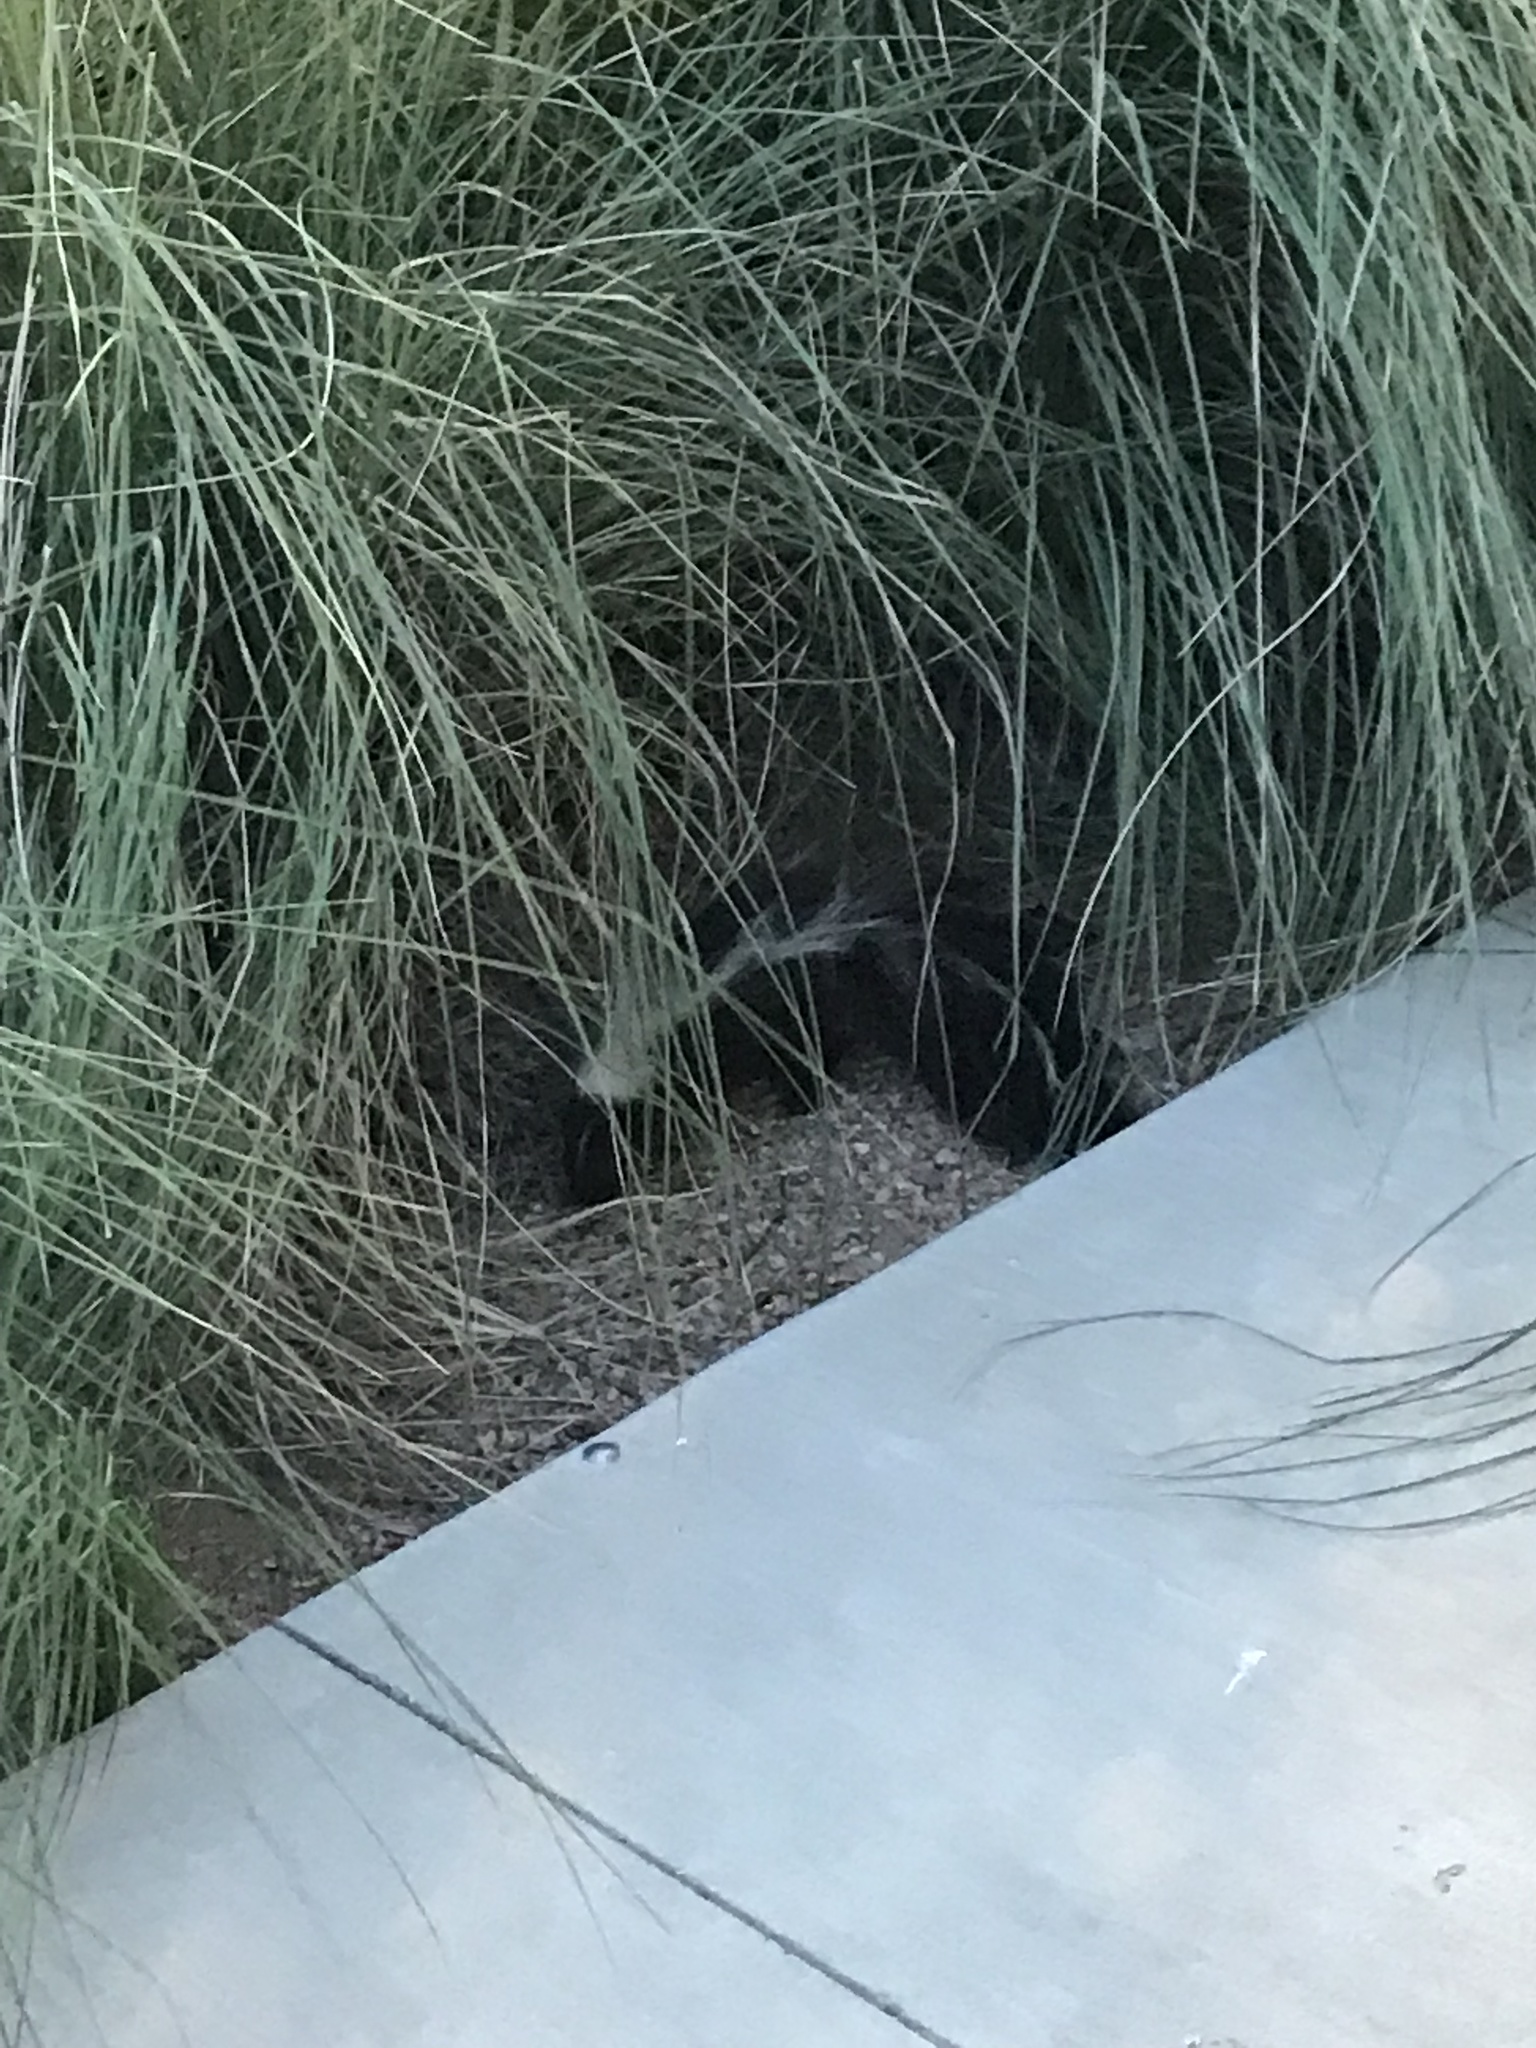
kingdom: Animalia
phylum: Chordata
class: Mammalia
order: Carnivora
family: Mephitidae
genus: Mephitis
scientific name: Mephitis mephitis
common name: Striped skunk
